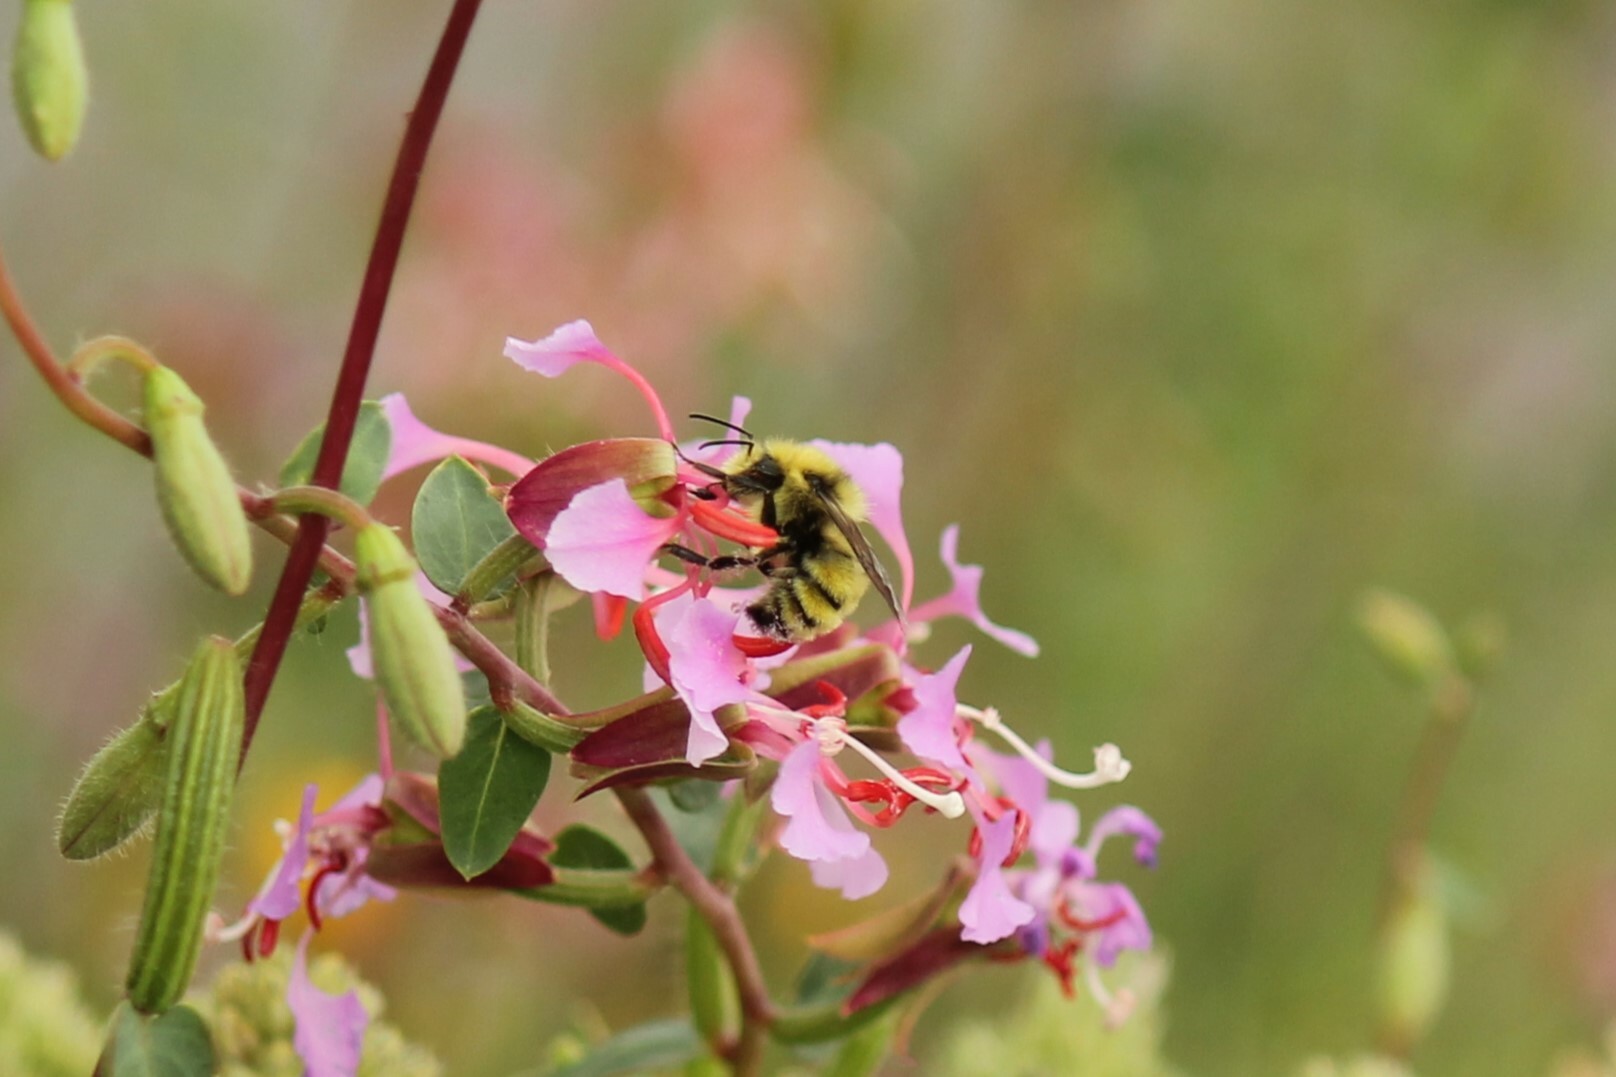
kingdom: Animalia
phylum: Arthropoda
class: Insecta
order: Hymenoptera
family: Apidae
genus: Bombus
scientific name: Bombus vandykei
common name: Van dyke bumble bee
